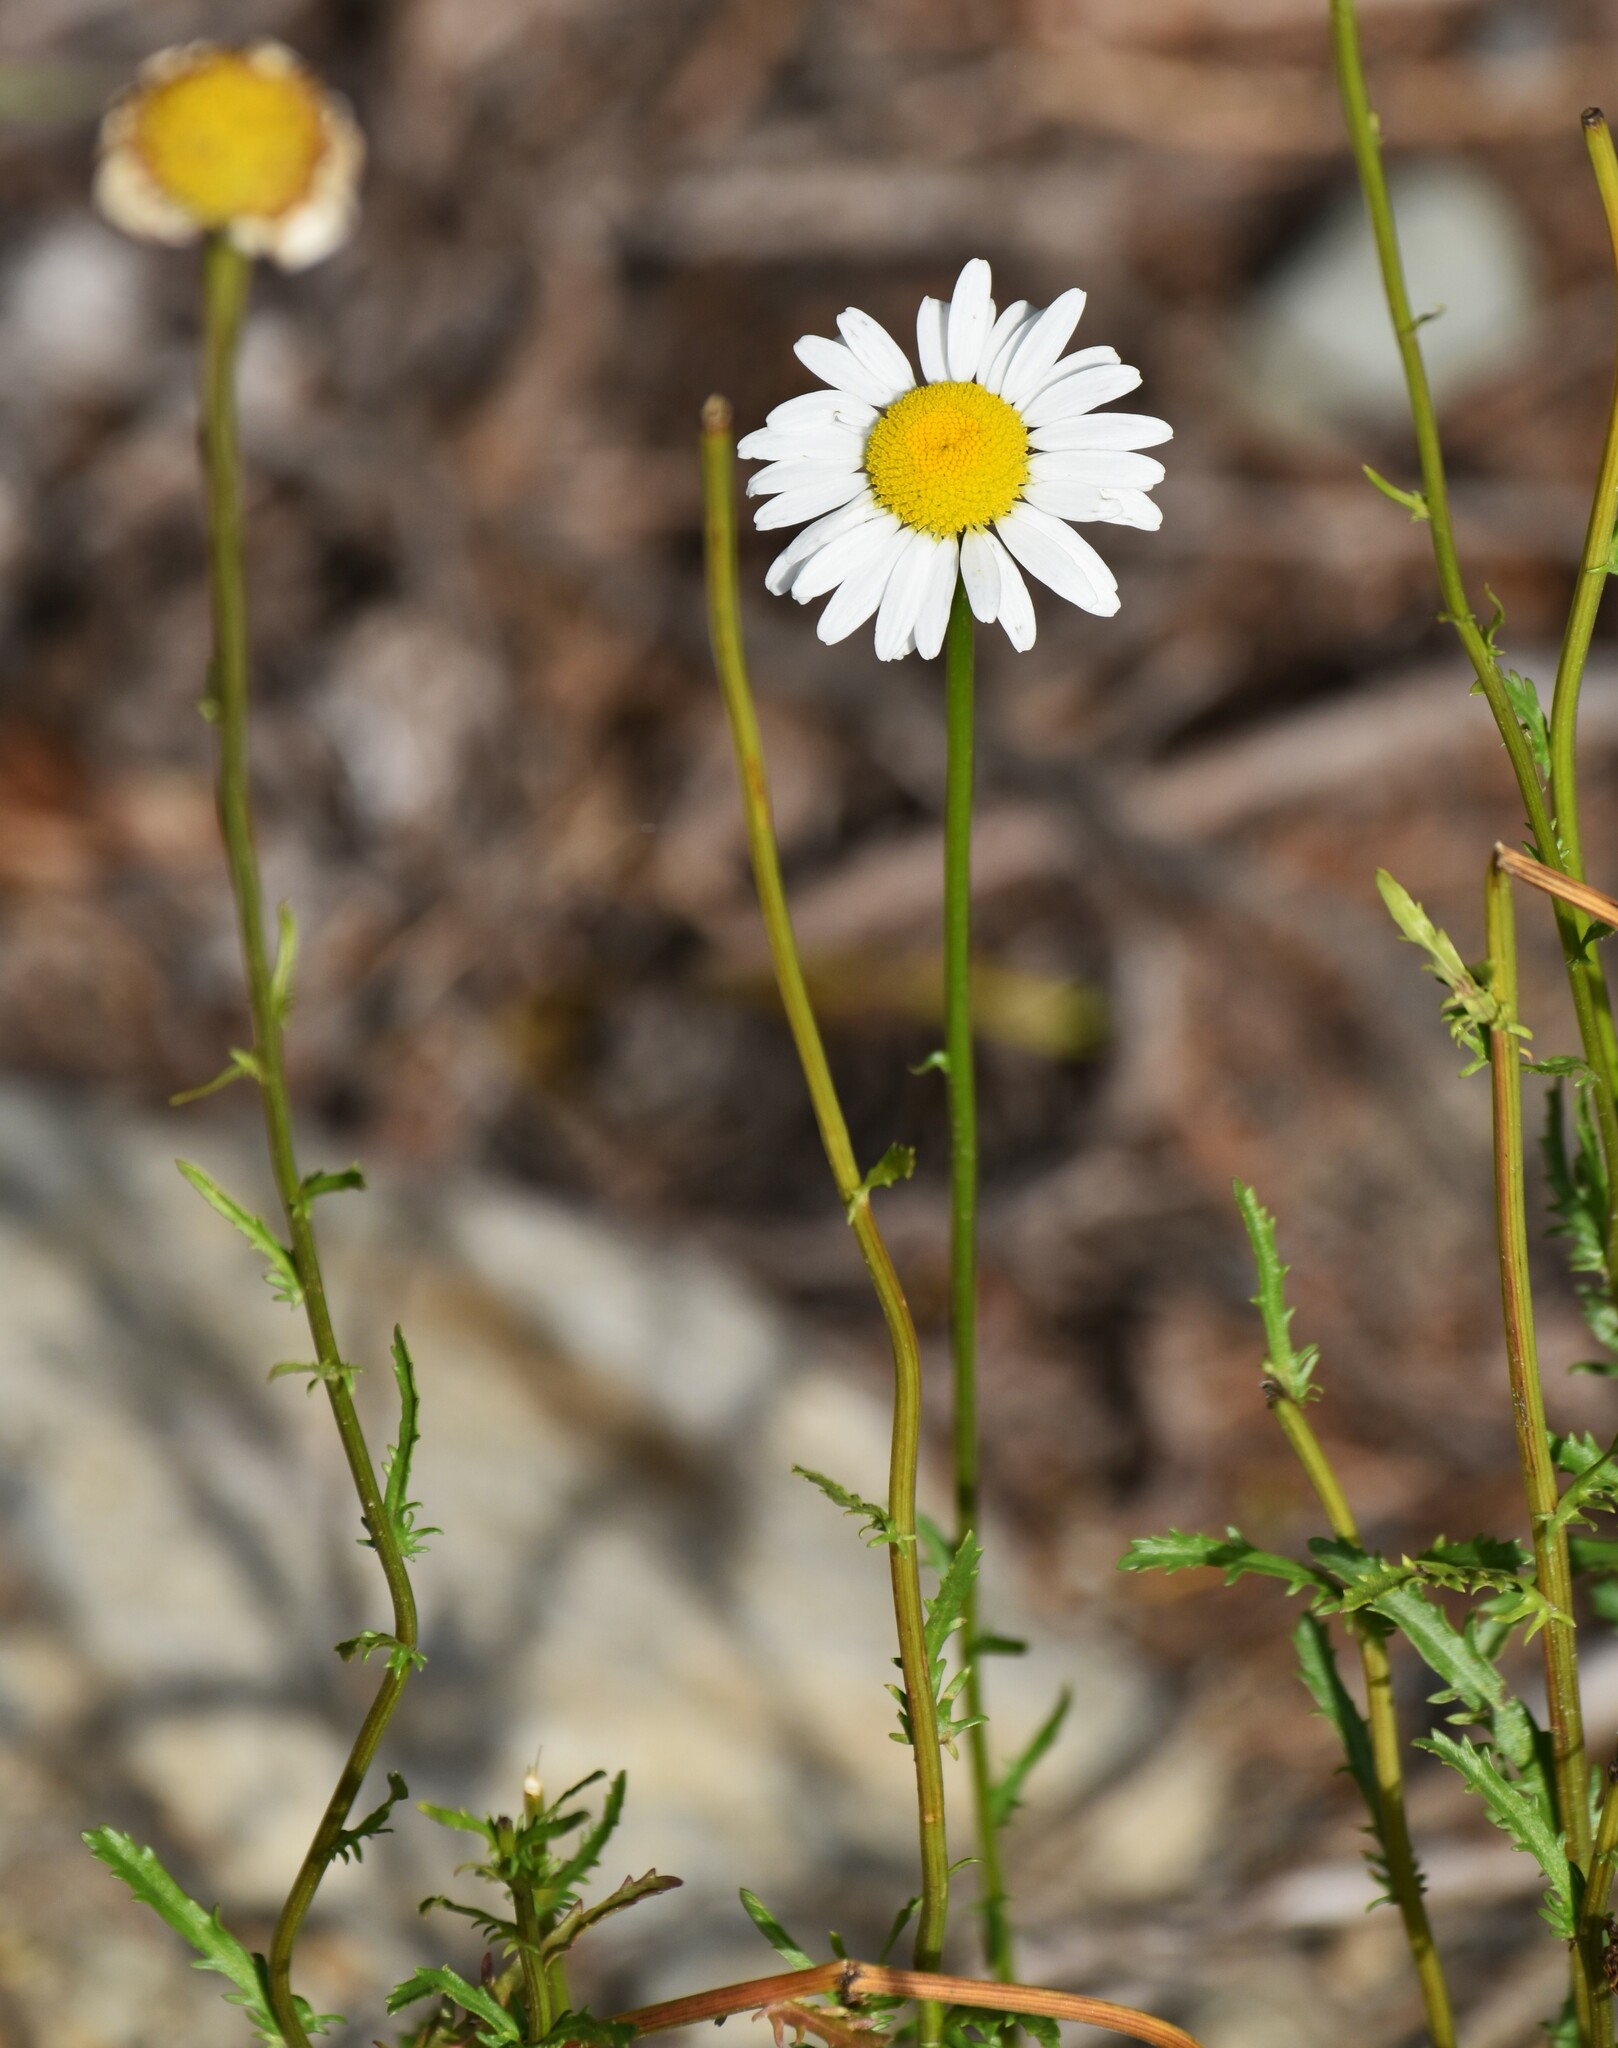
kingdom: Plantae
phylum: Tracheophyta
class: Magnoliopsida
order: Asterales
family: Asteraceae
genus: Leucanthemum
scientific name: Leucanthemum vulgare
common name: Oxeye daisy
